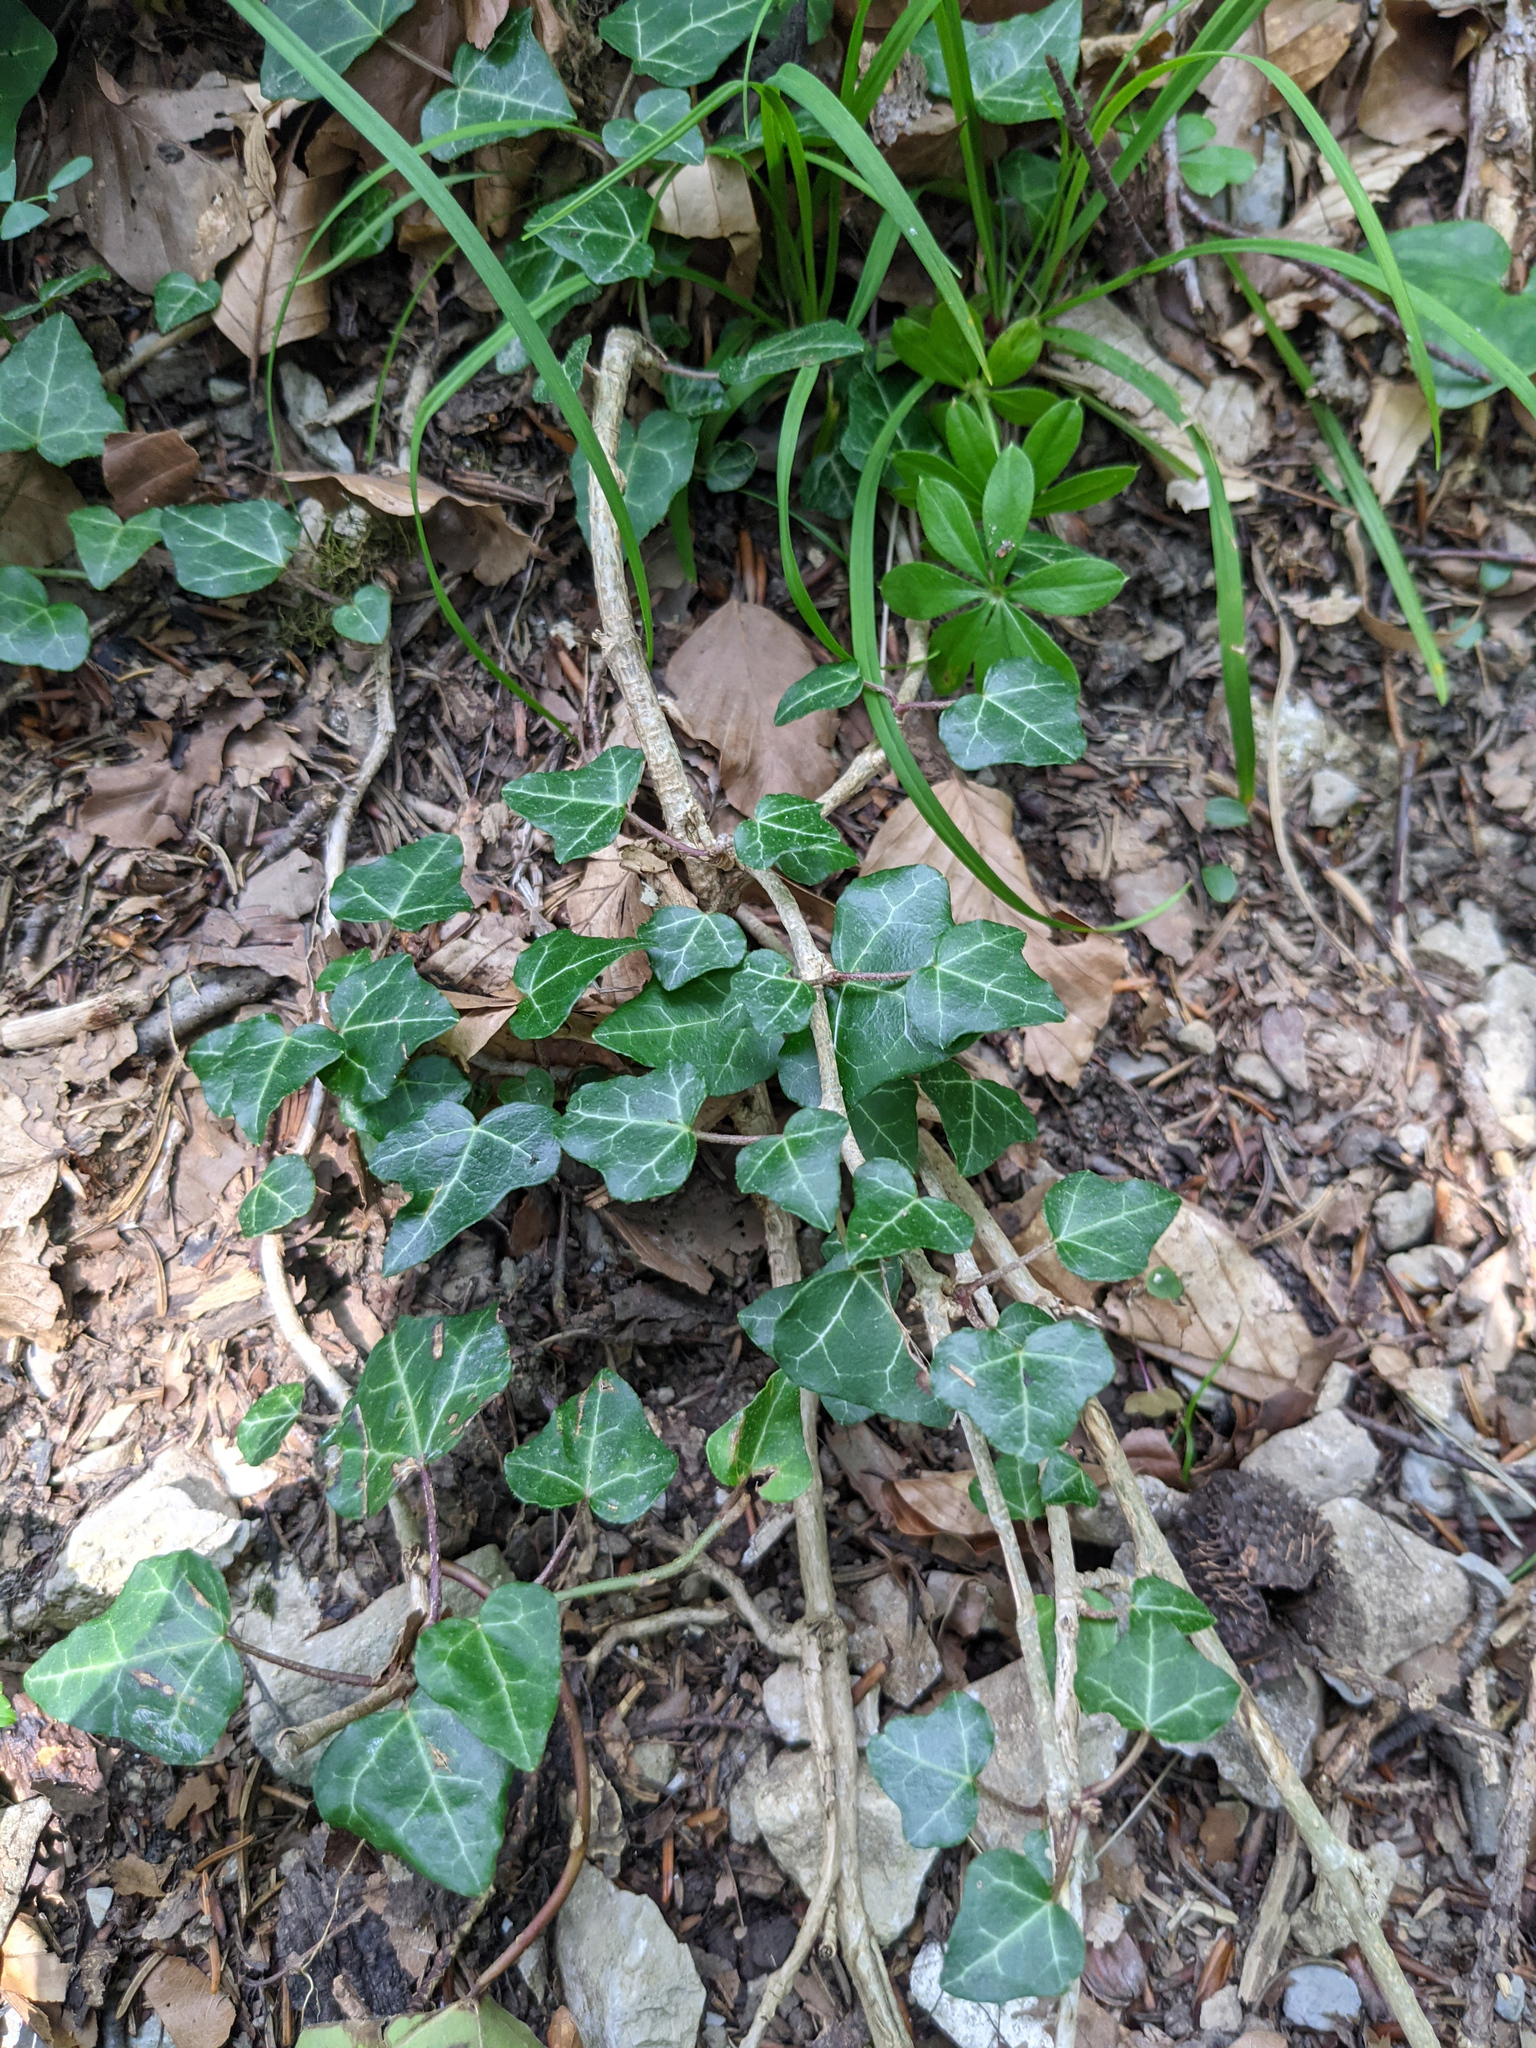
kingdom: Plantae
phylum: Tracheophyta
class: Magnoliopsida
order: Apiales
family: Araliaceae
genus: Hedera
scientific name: Hedera helix
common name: Ivy
